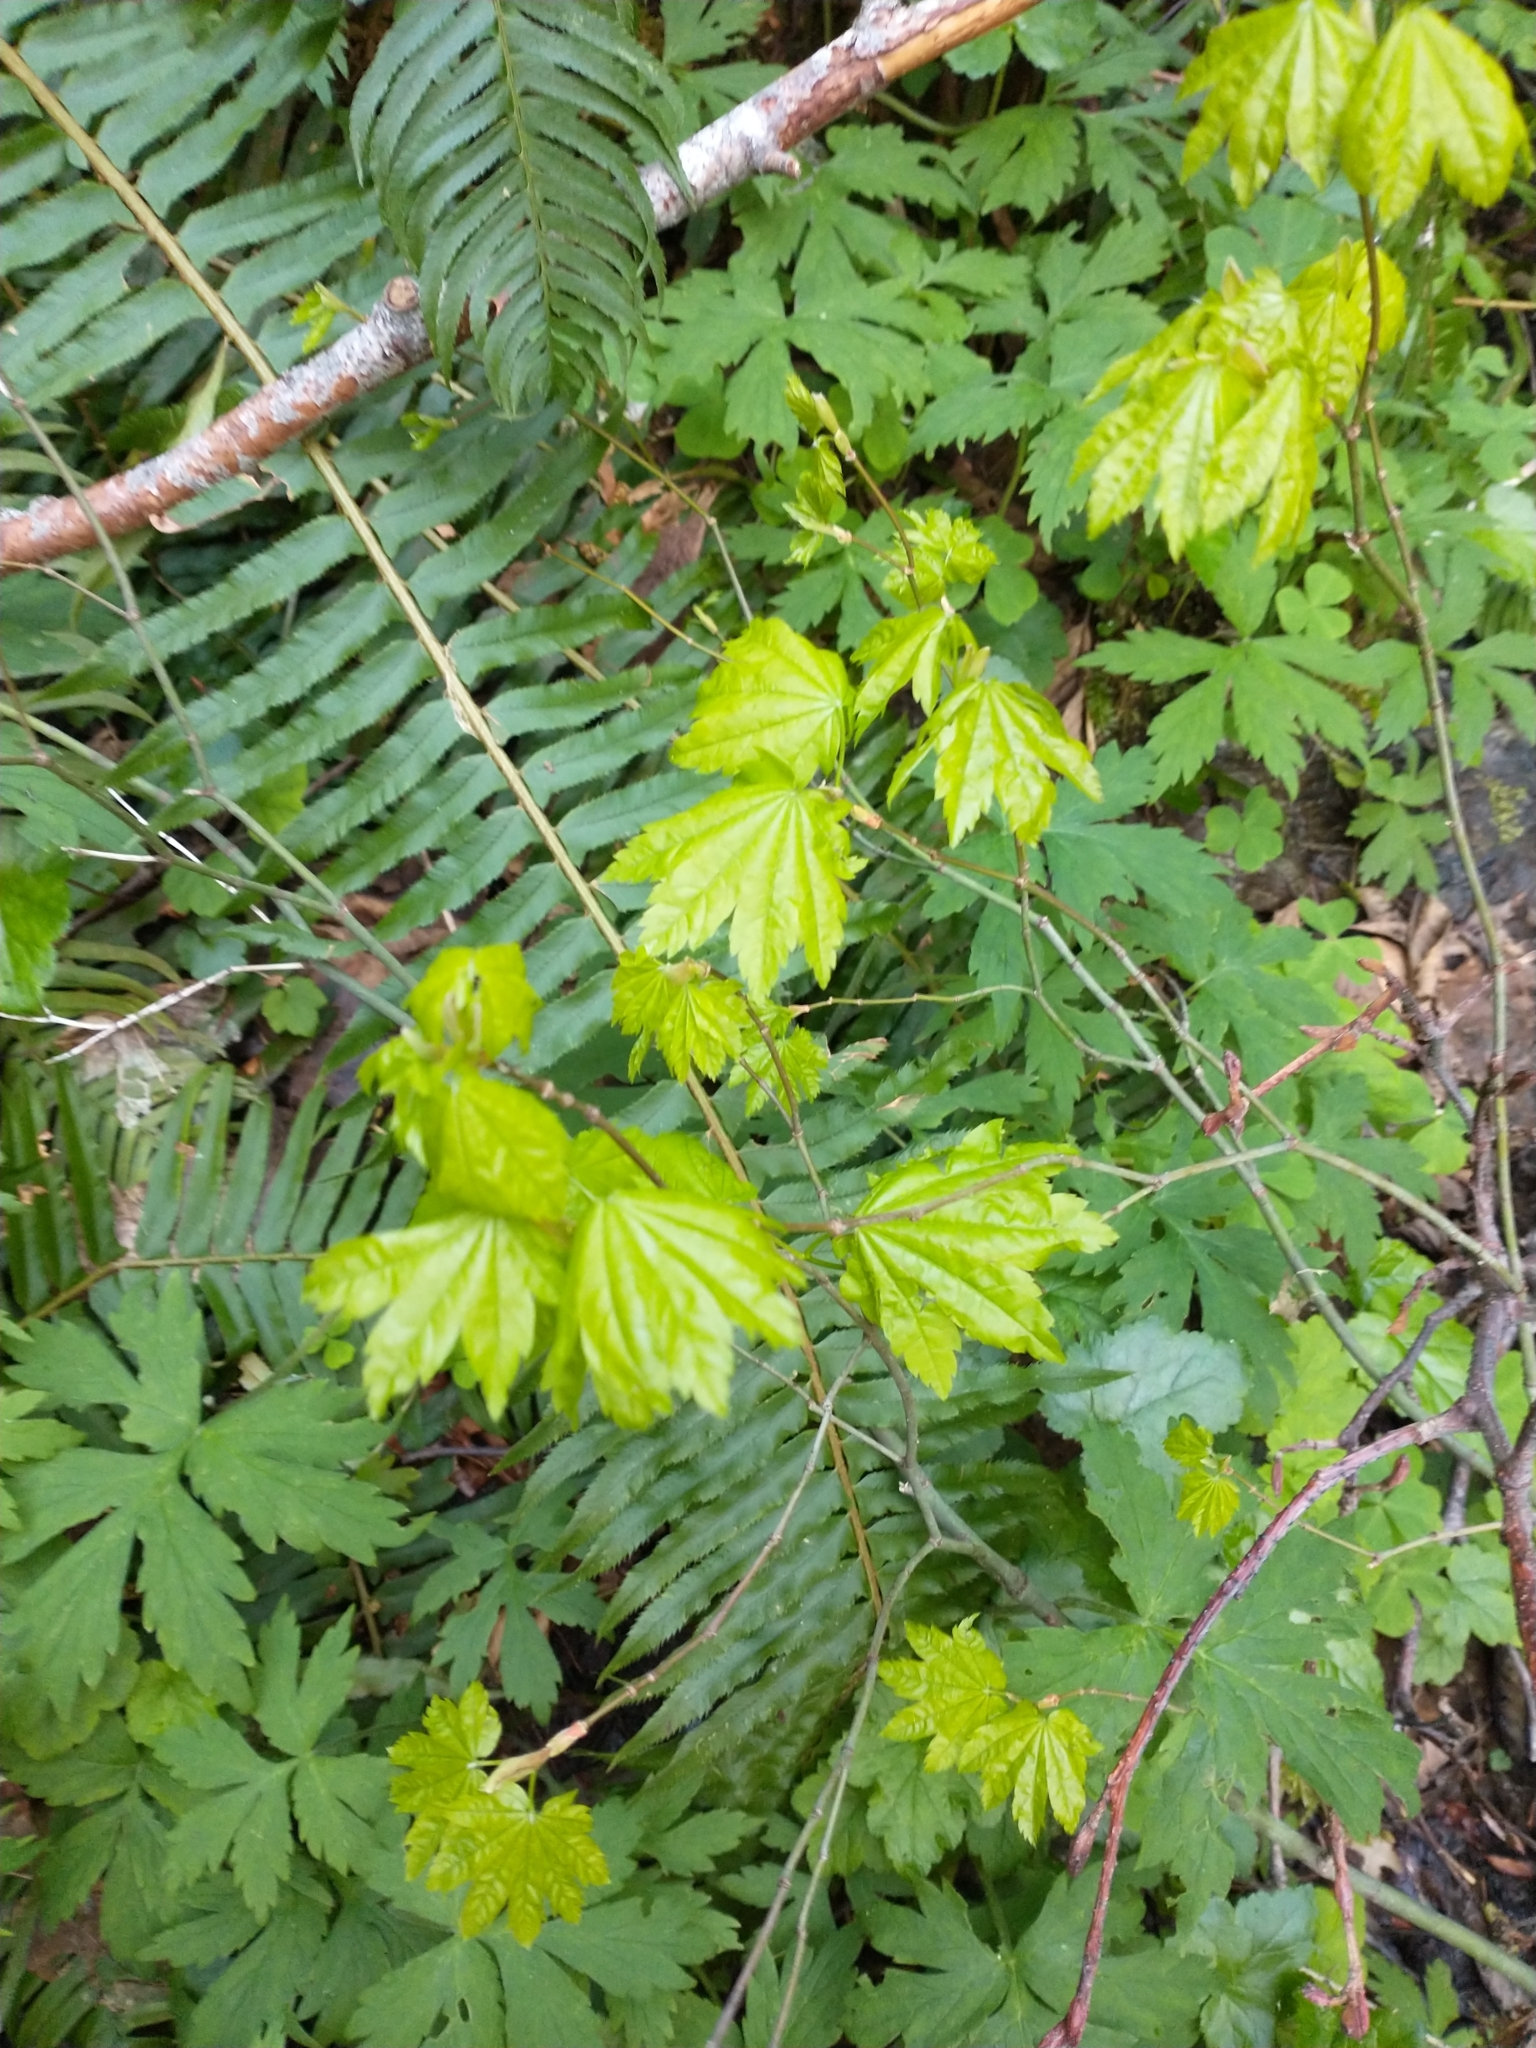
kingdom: Plantae
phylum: Tracheophyta
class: Magnoliopsida
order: Sapindales
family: Sapindaceae
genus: Acer
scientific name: Acer circinatum
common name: Vine maple
